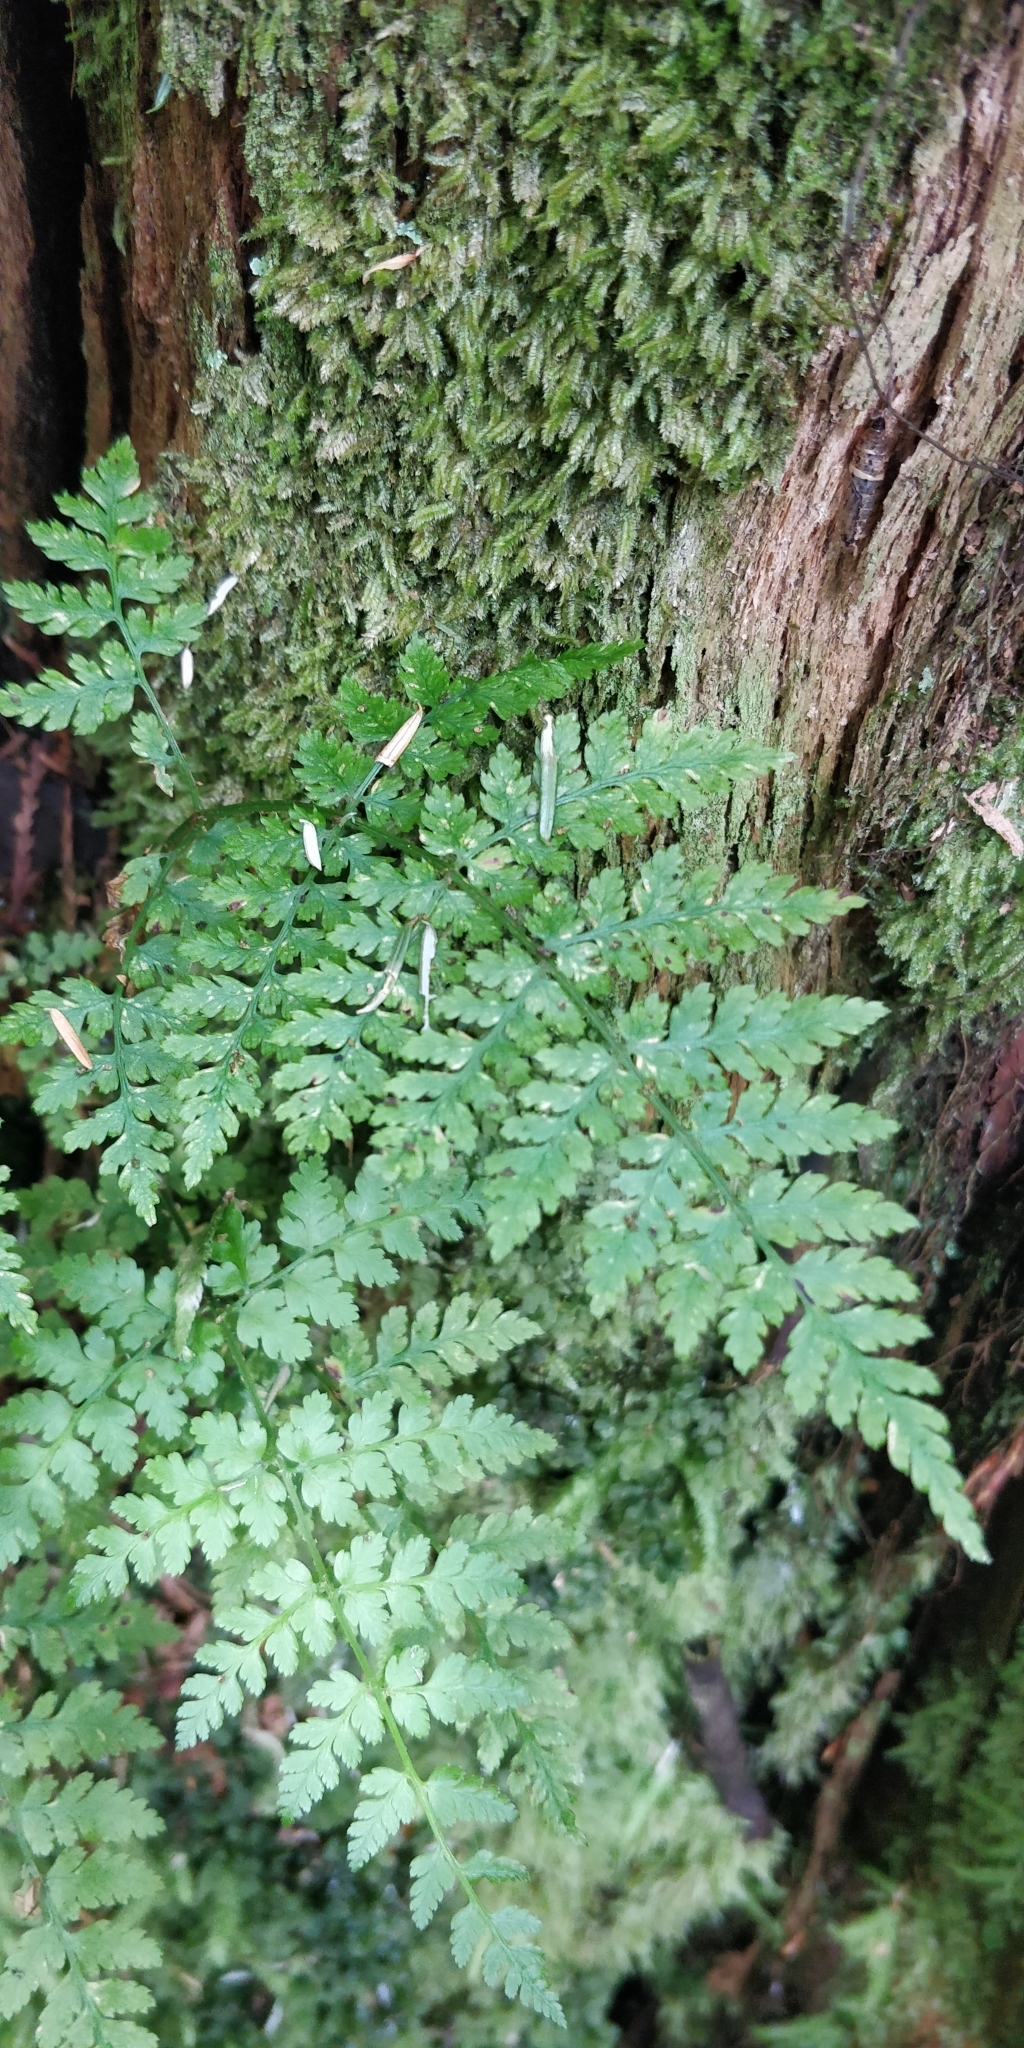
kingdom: Plantae
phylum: Tracheophyta
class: Polypodiopsida
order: Polypodiales
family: Dryopteridaceae
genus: Dryopteris
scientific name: Dryopteris expansa
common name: Northern buckler fern
